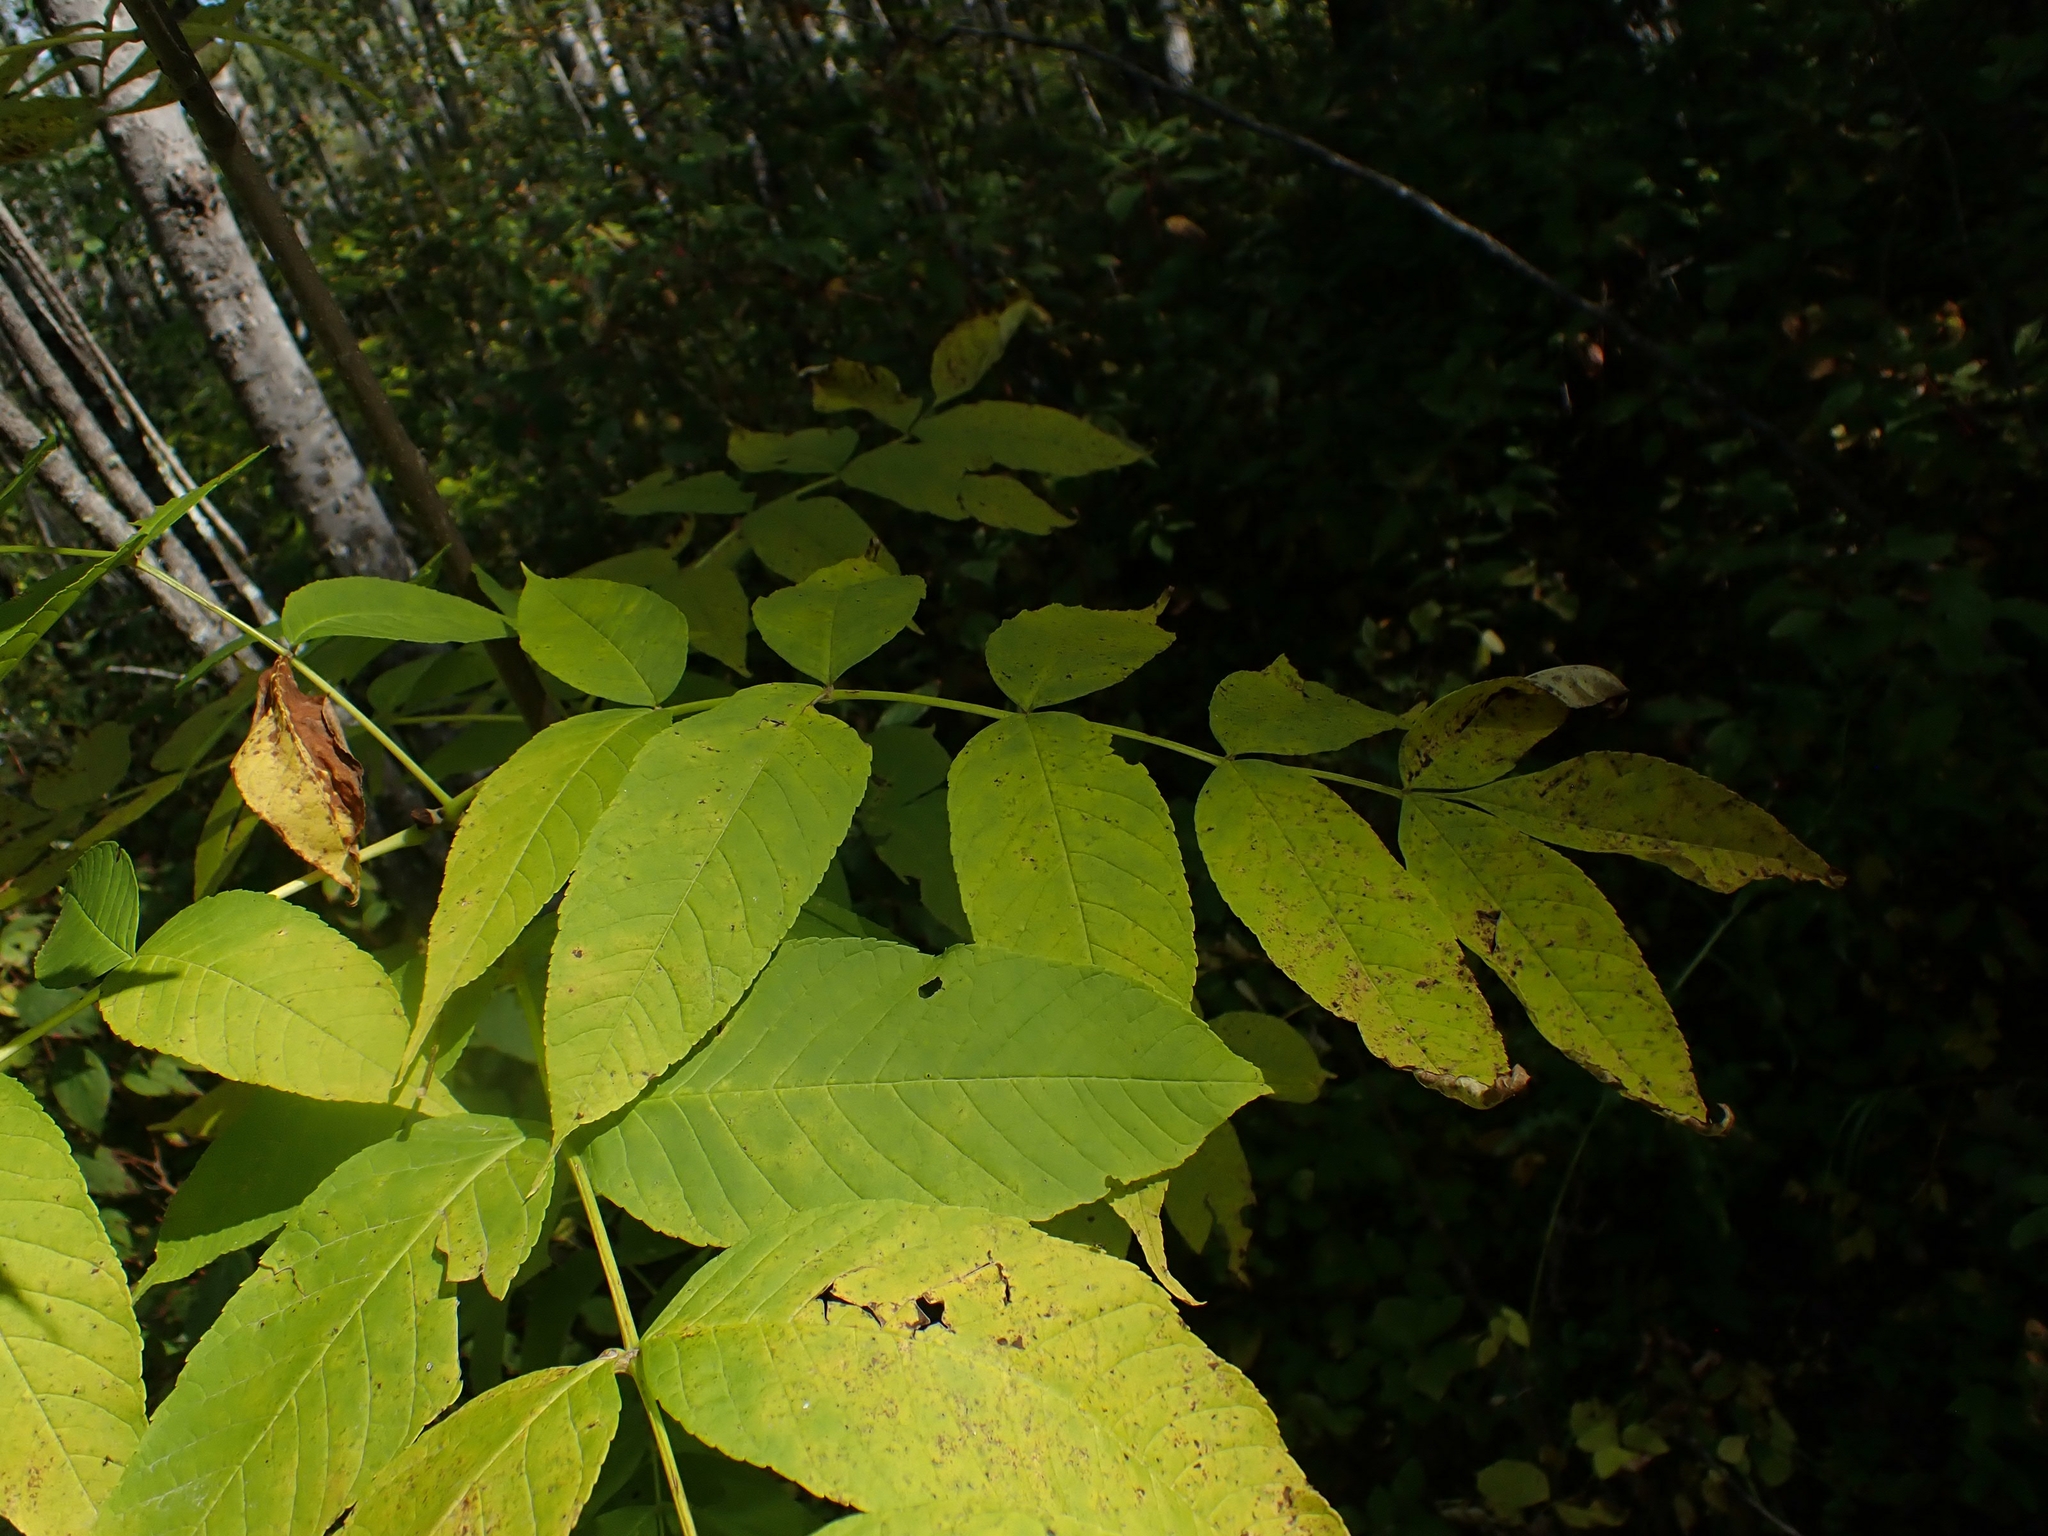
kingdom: Plantae
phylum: Tracheophyta
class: Magnoliopsida
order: Lamiales
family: Oleaceae
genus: Fraxinus
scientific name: Fraxinus nigra
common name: Black ash
